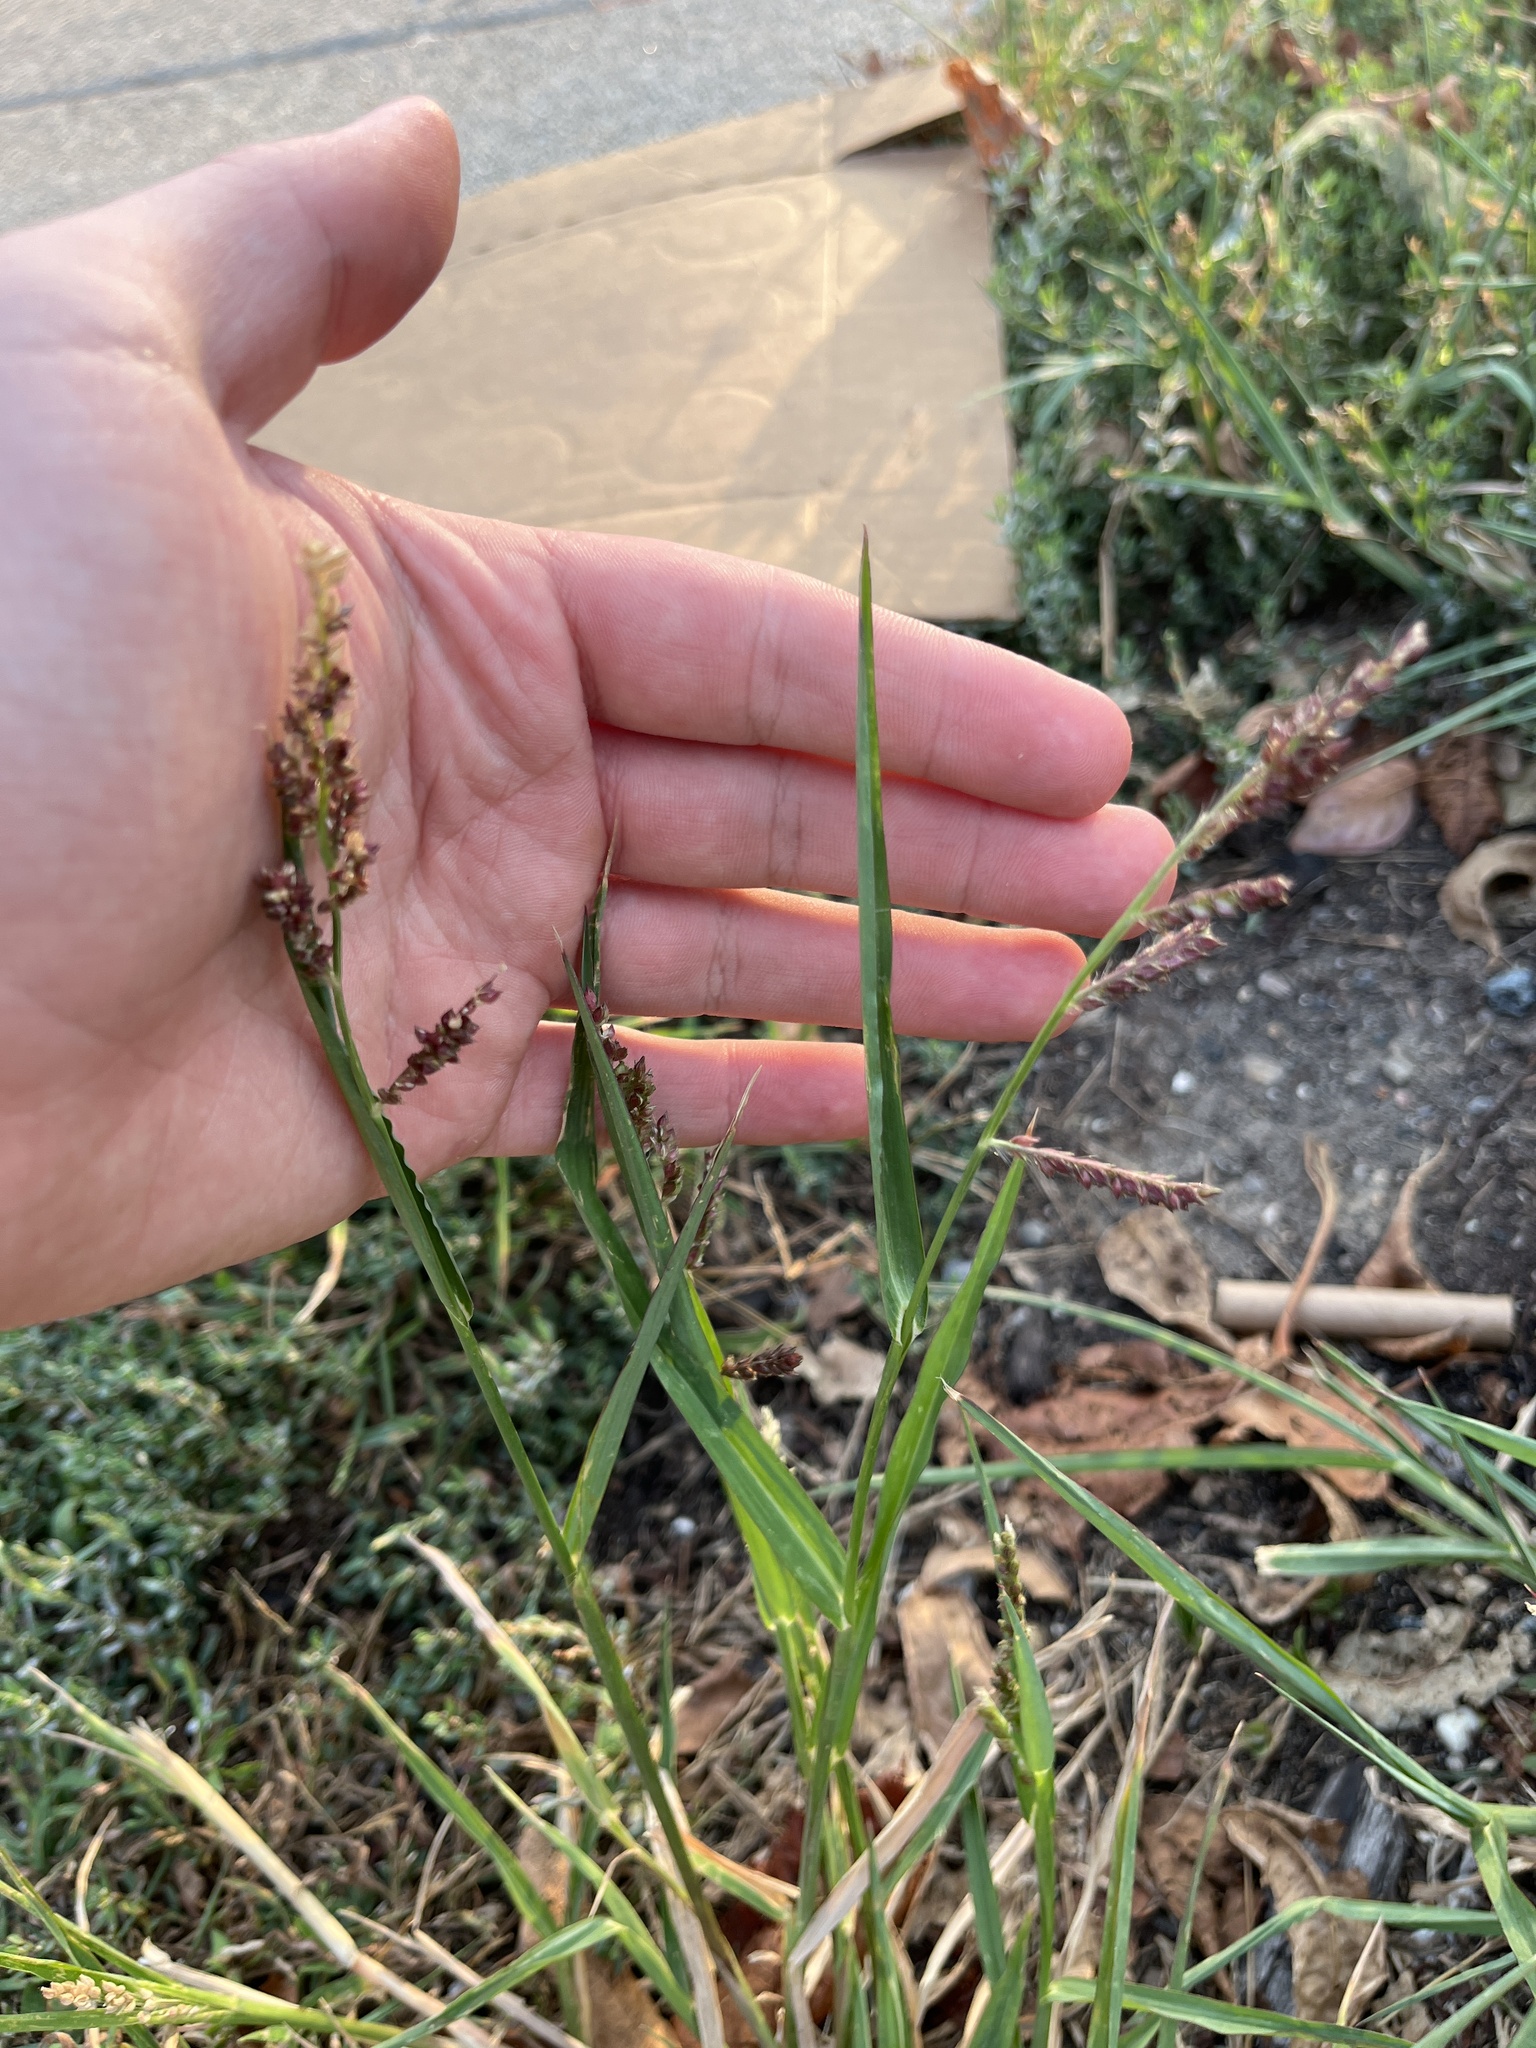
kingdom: Plantae
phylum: Tracheophyta
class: Liliopsida
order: Poales
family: Poaceae
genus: Echinochloa
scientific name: Echinochloa crus-galli
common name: Cockspur
